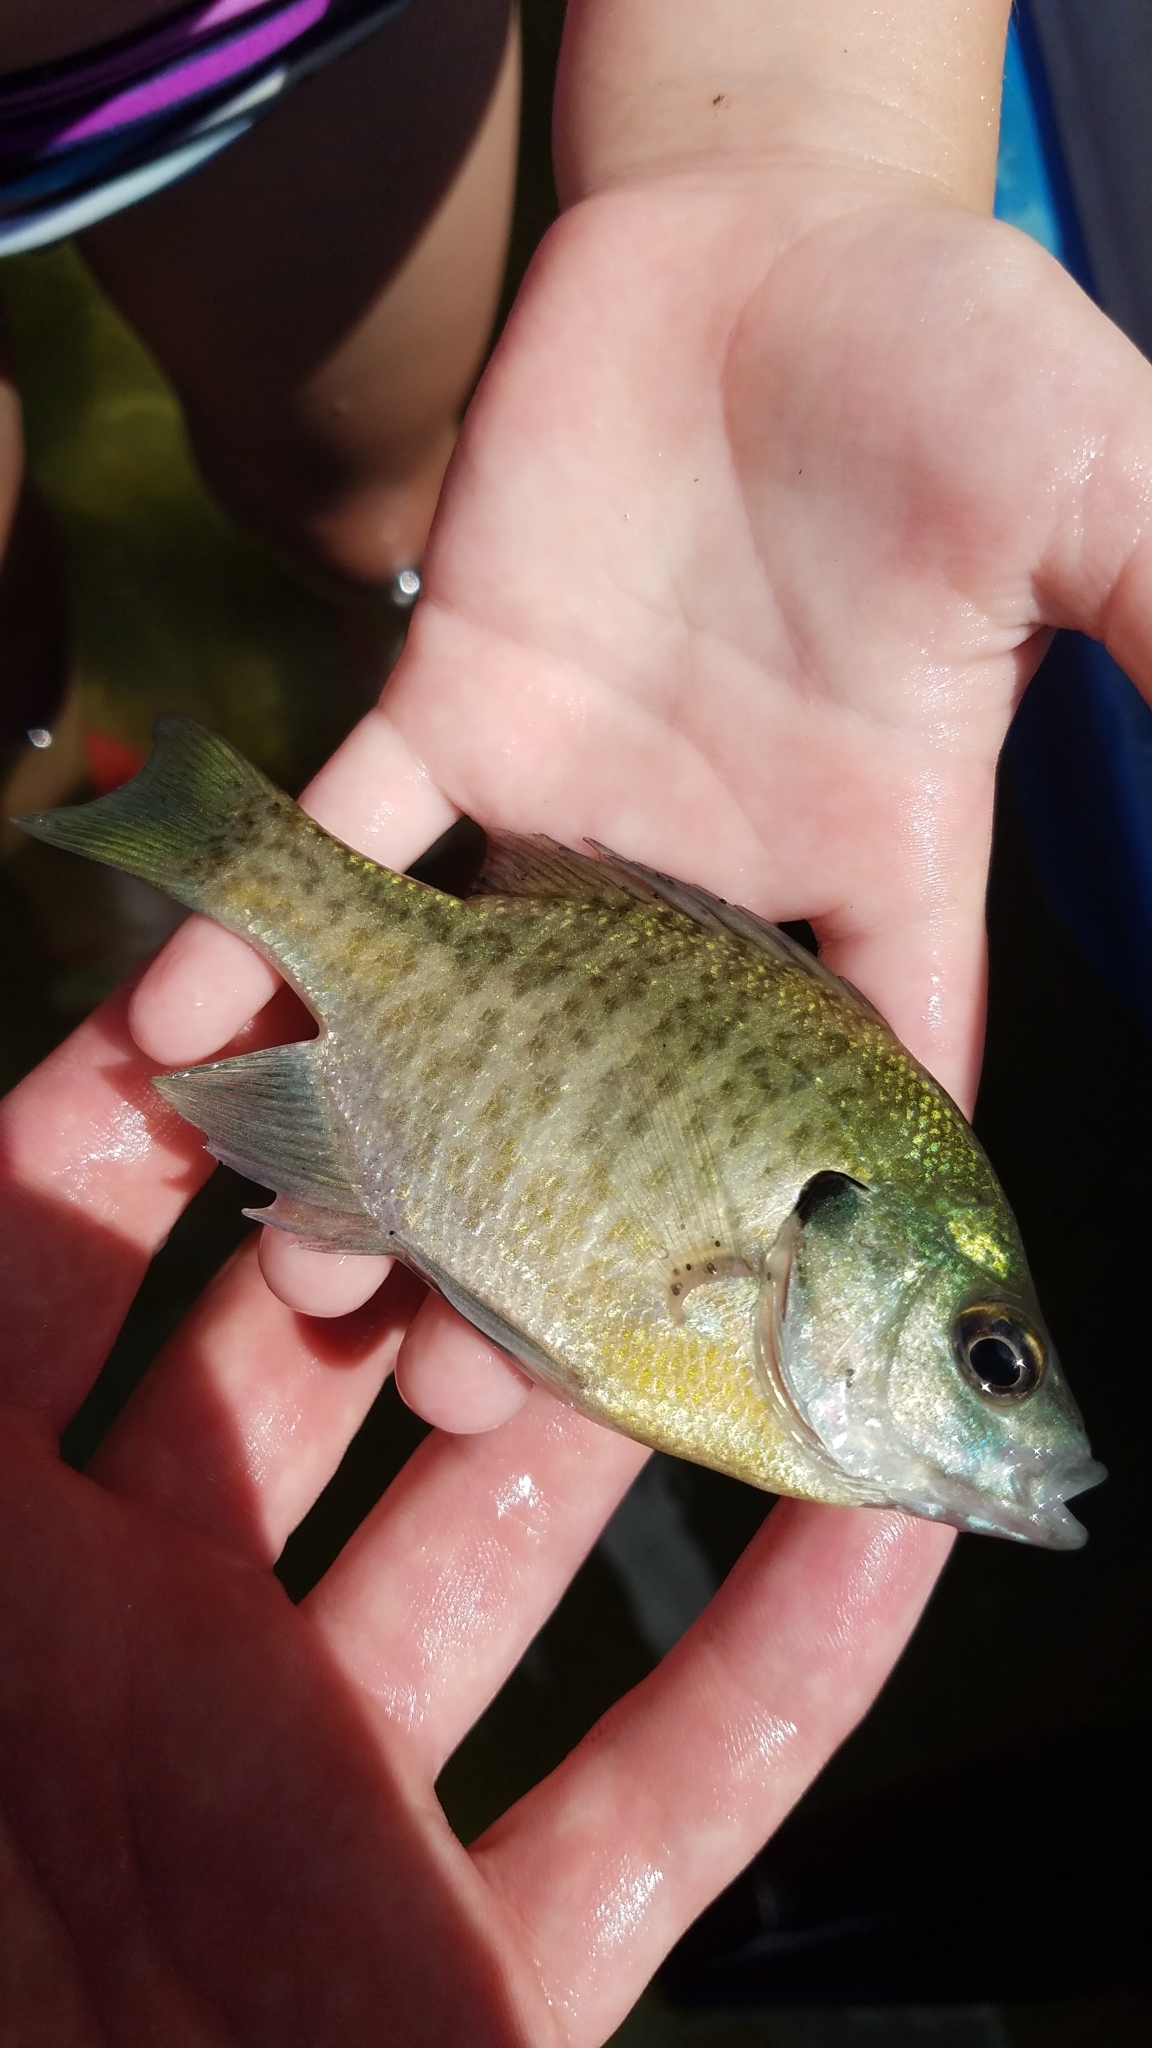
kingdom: Animalia
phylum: Chordata
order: Perciformes
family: Centrarchidae
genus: Lepomis
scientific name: Lepomis macrochirus
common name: Bluegill
